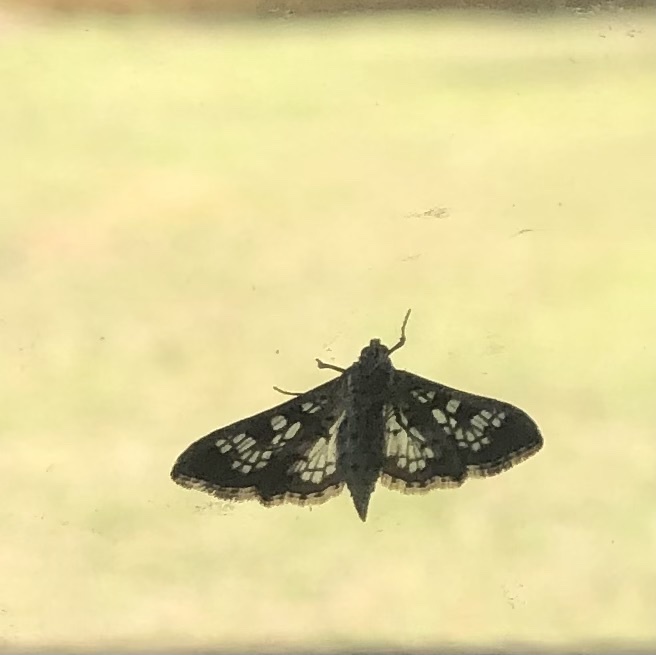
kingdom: Animalia
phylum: Arthropoda
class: Insecta
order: Lepidoptera
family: Crambidae
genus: Samea
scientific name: Samea ecclesialis
